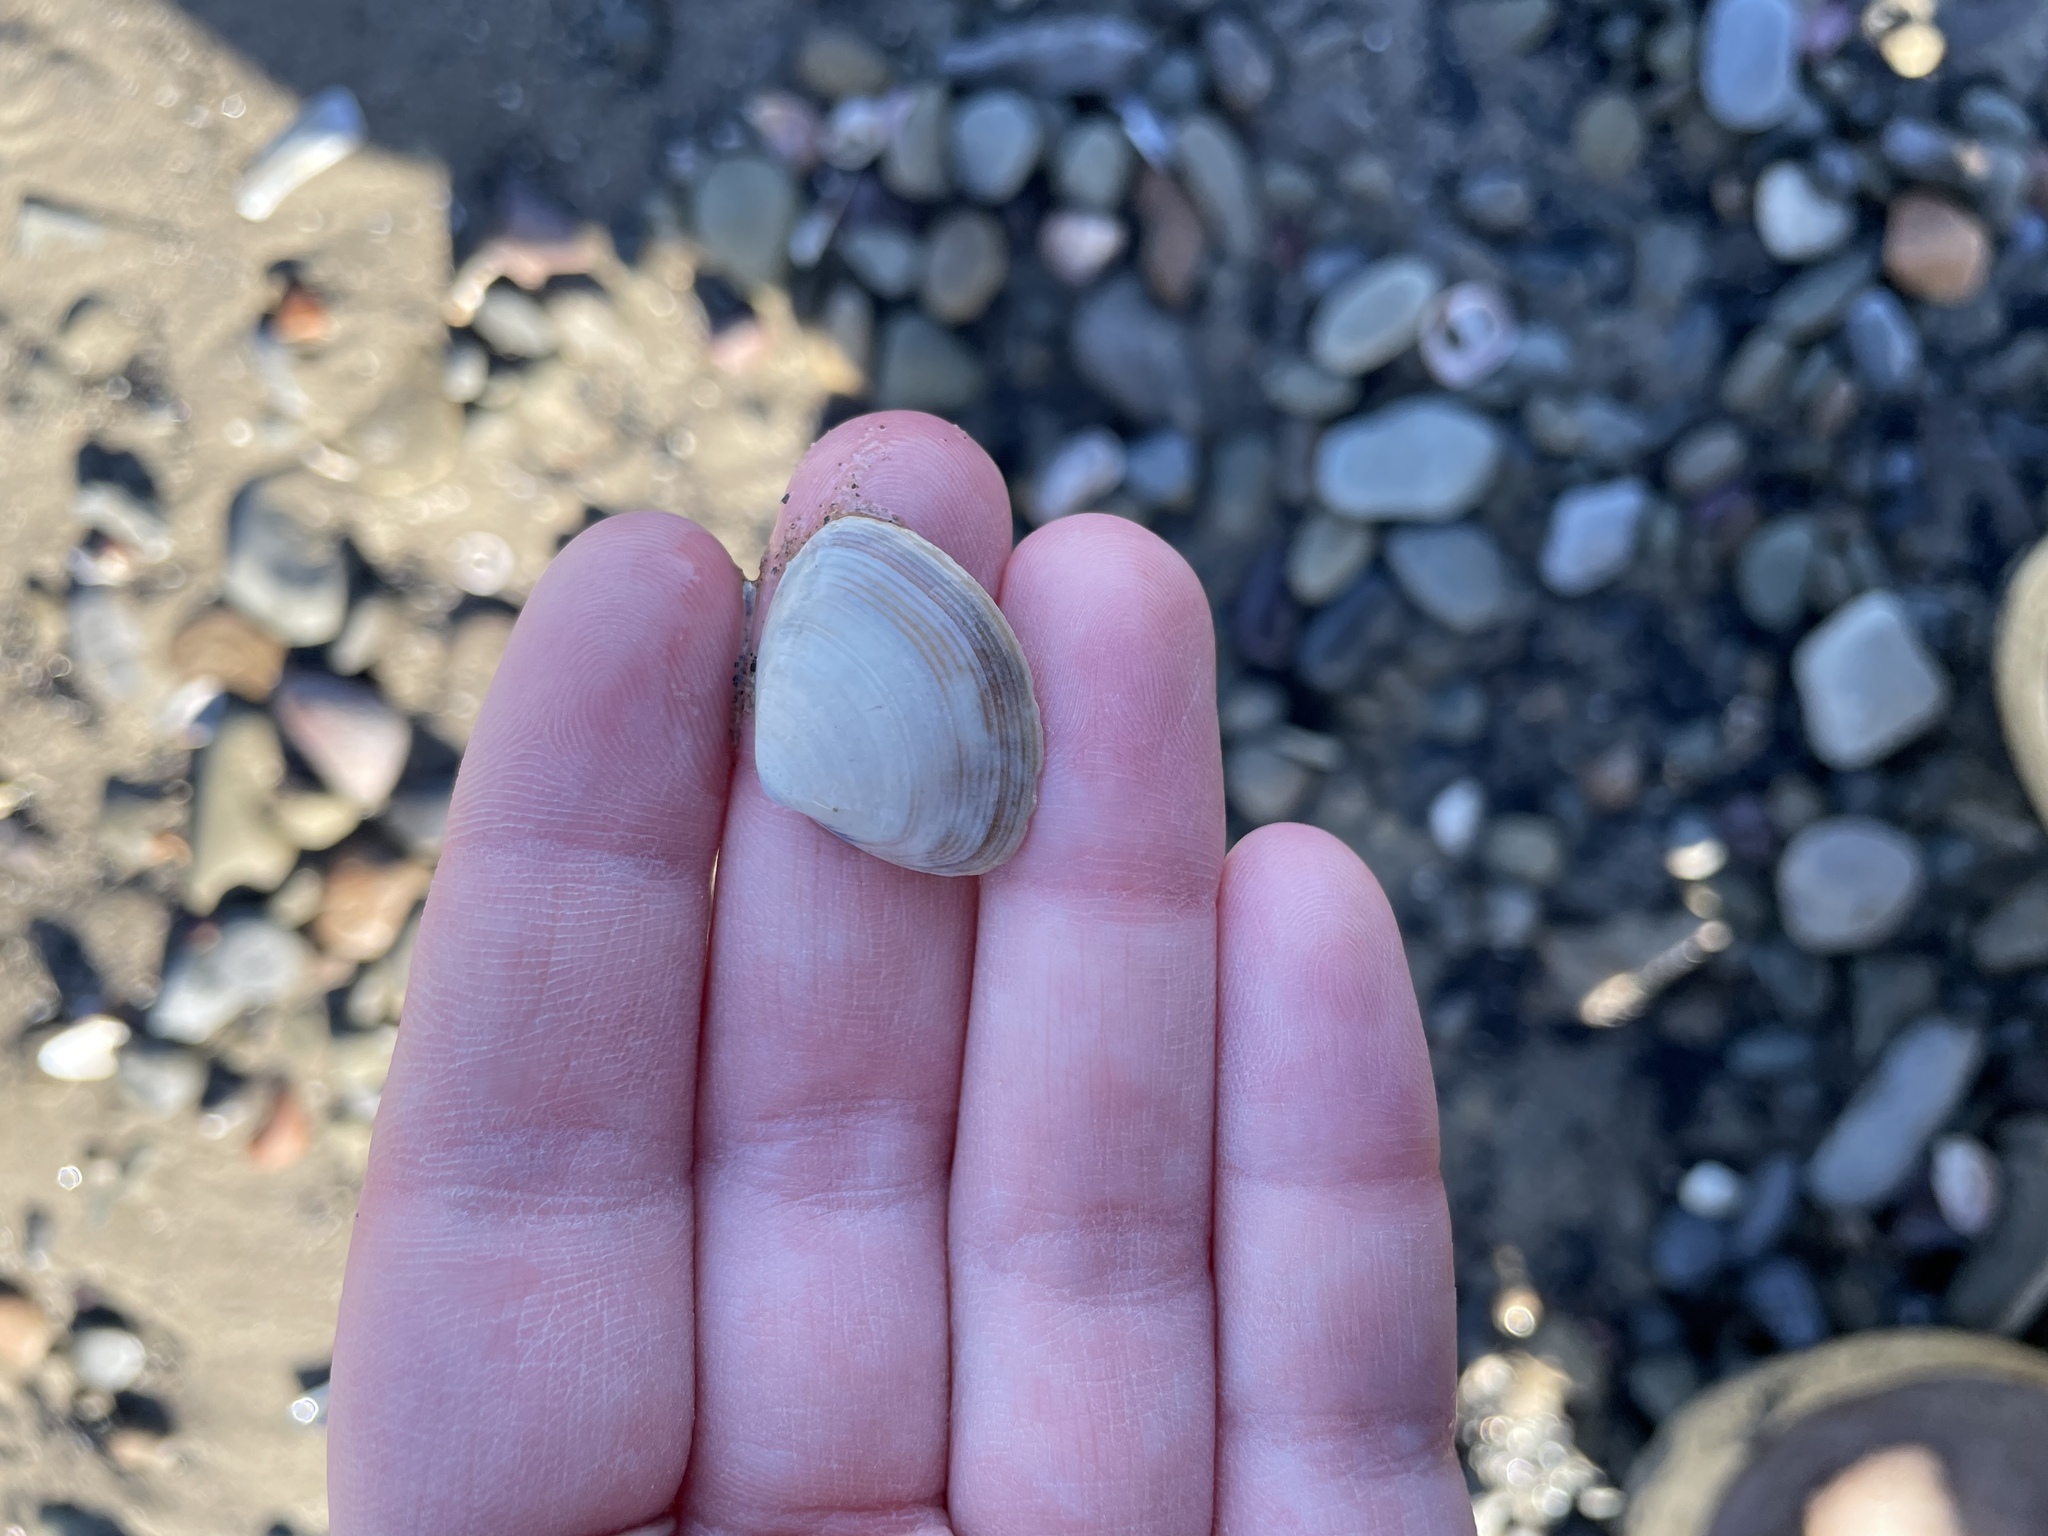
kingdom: Animalia
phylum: Mollusca
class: Bivalvia
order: Venerida
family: Mactridae
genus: Spisula
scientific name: Spisula solidissima
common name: Atlantic surf clam
